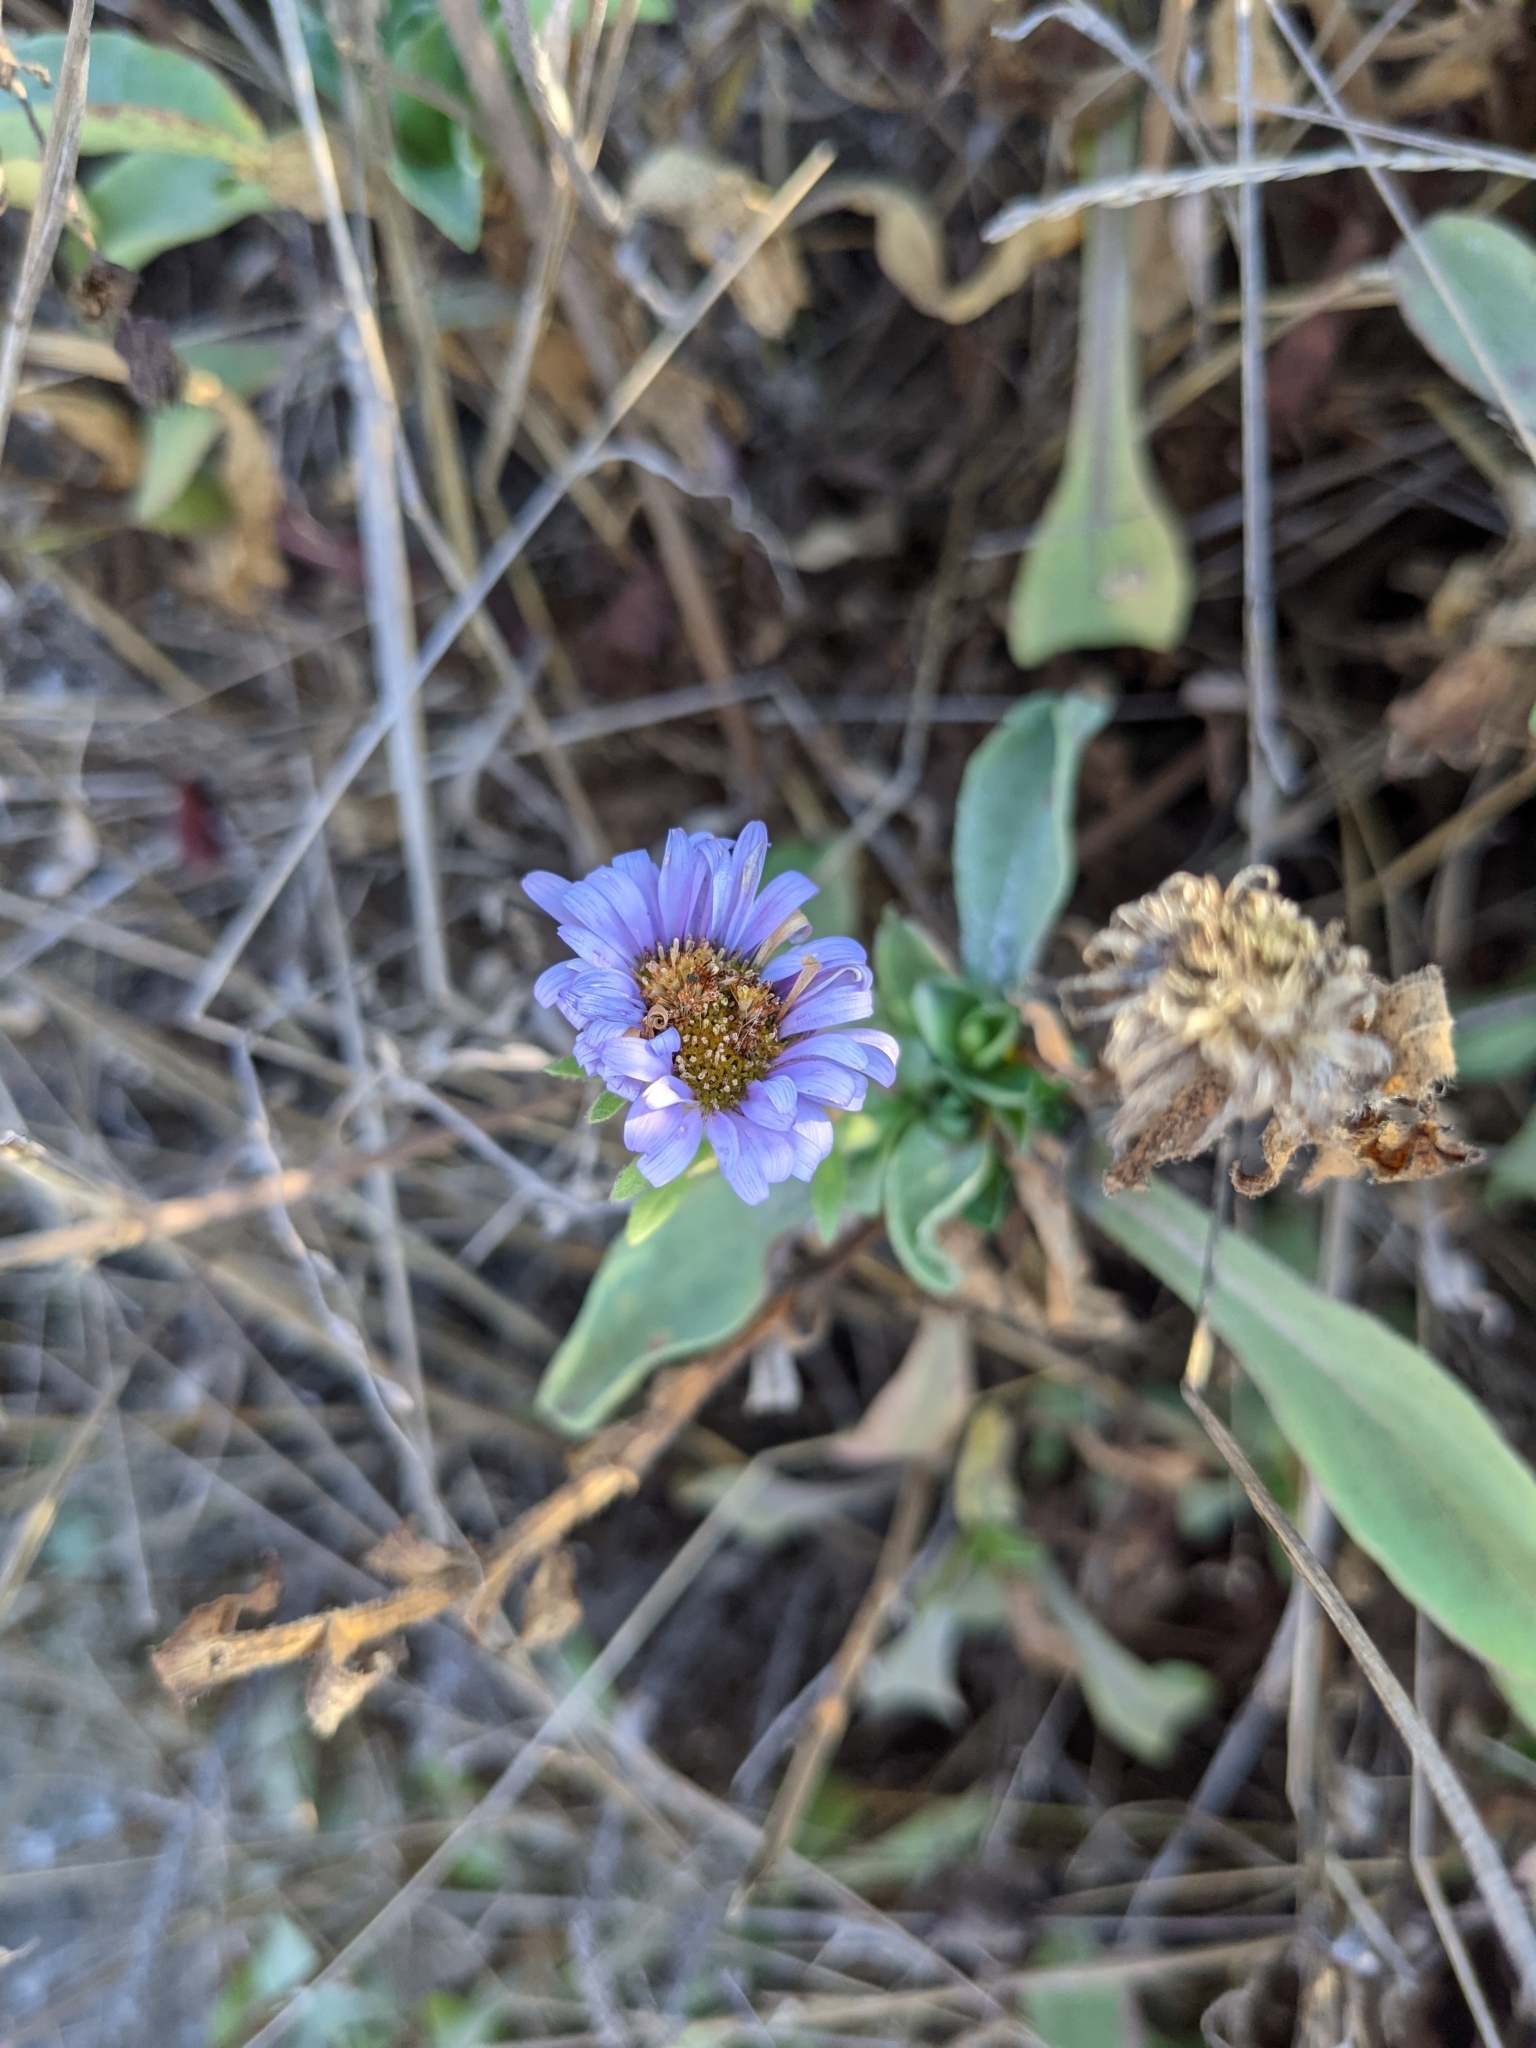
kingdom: Plantae
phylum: Tracheophyta
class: Magnoliopsida
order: Asterales
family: Asteraceae
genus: Erigeron
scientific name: Erigeron glaucus
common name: Seaside daisy
